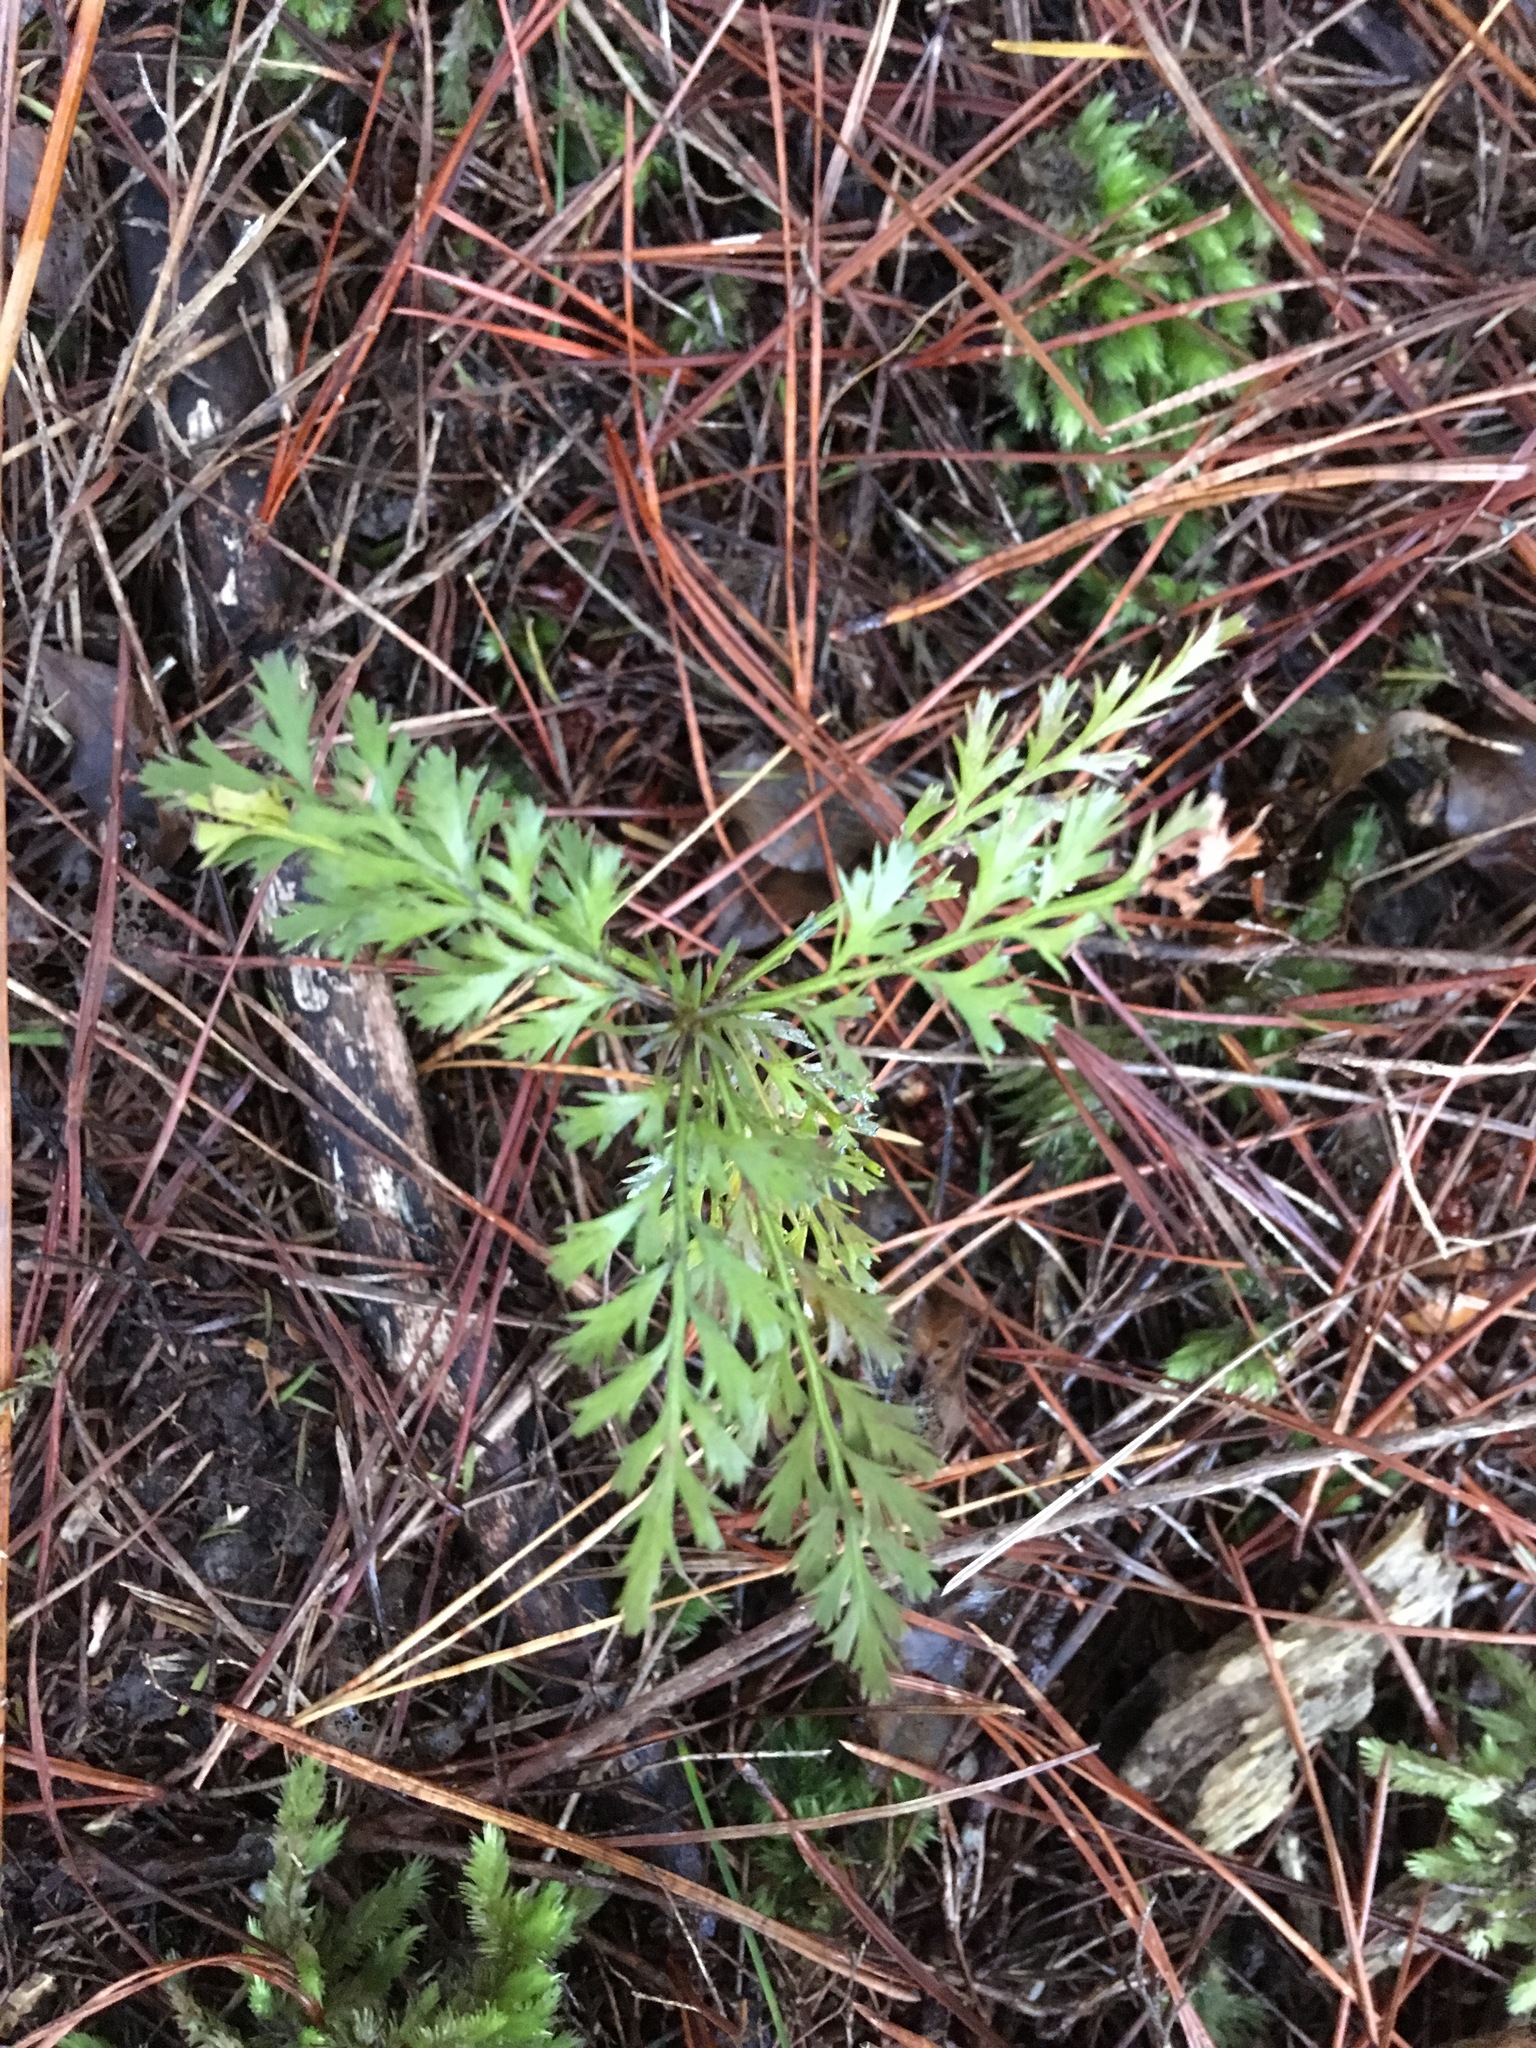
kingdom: Plantae
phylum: Tracheophyta
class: Pinopsida
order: Pinales
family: Phyllocladaceae
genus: Phyllocladus
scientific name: Phyllocladus trichomanoides
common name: Celery pine
